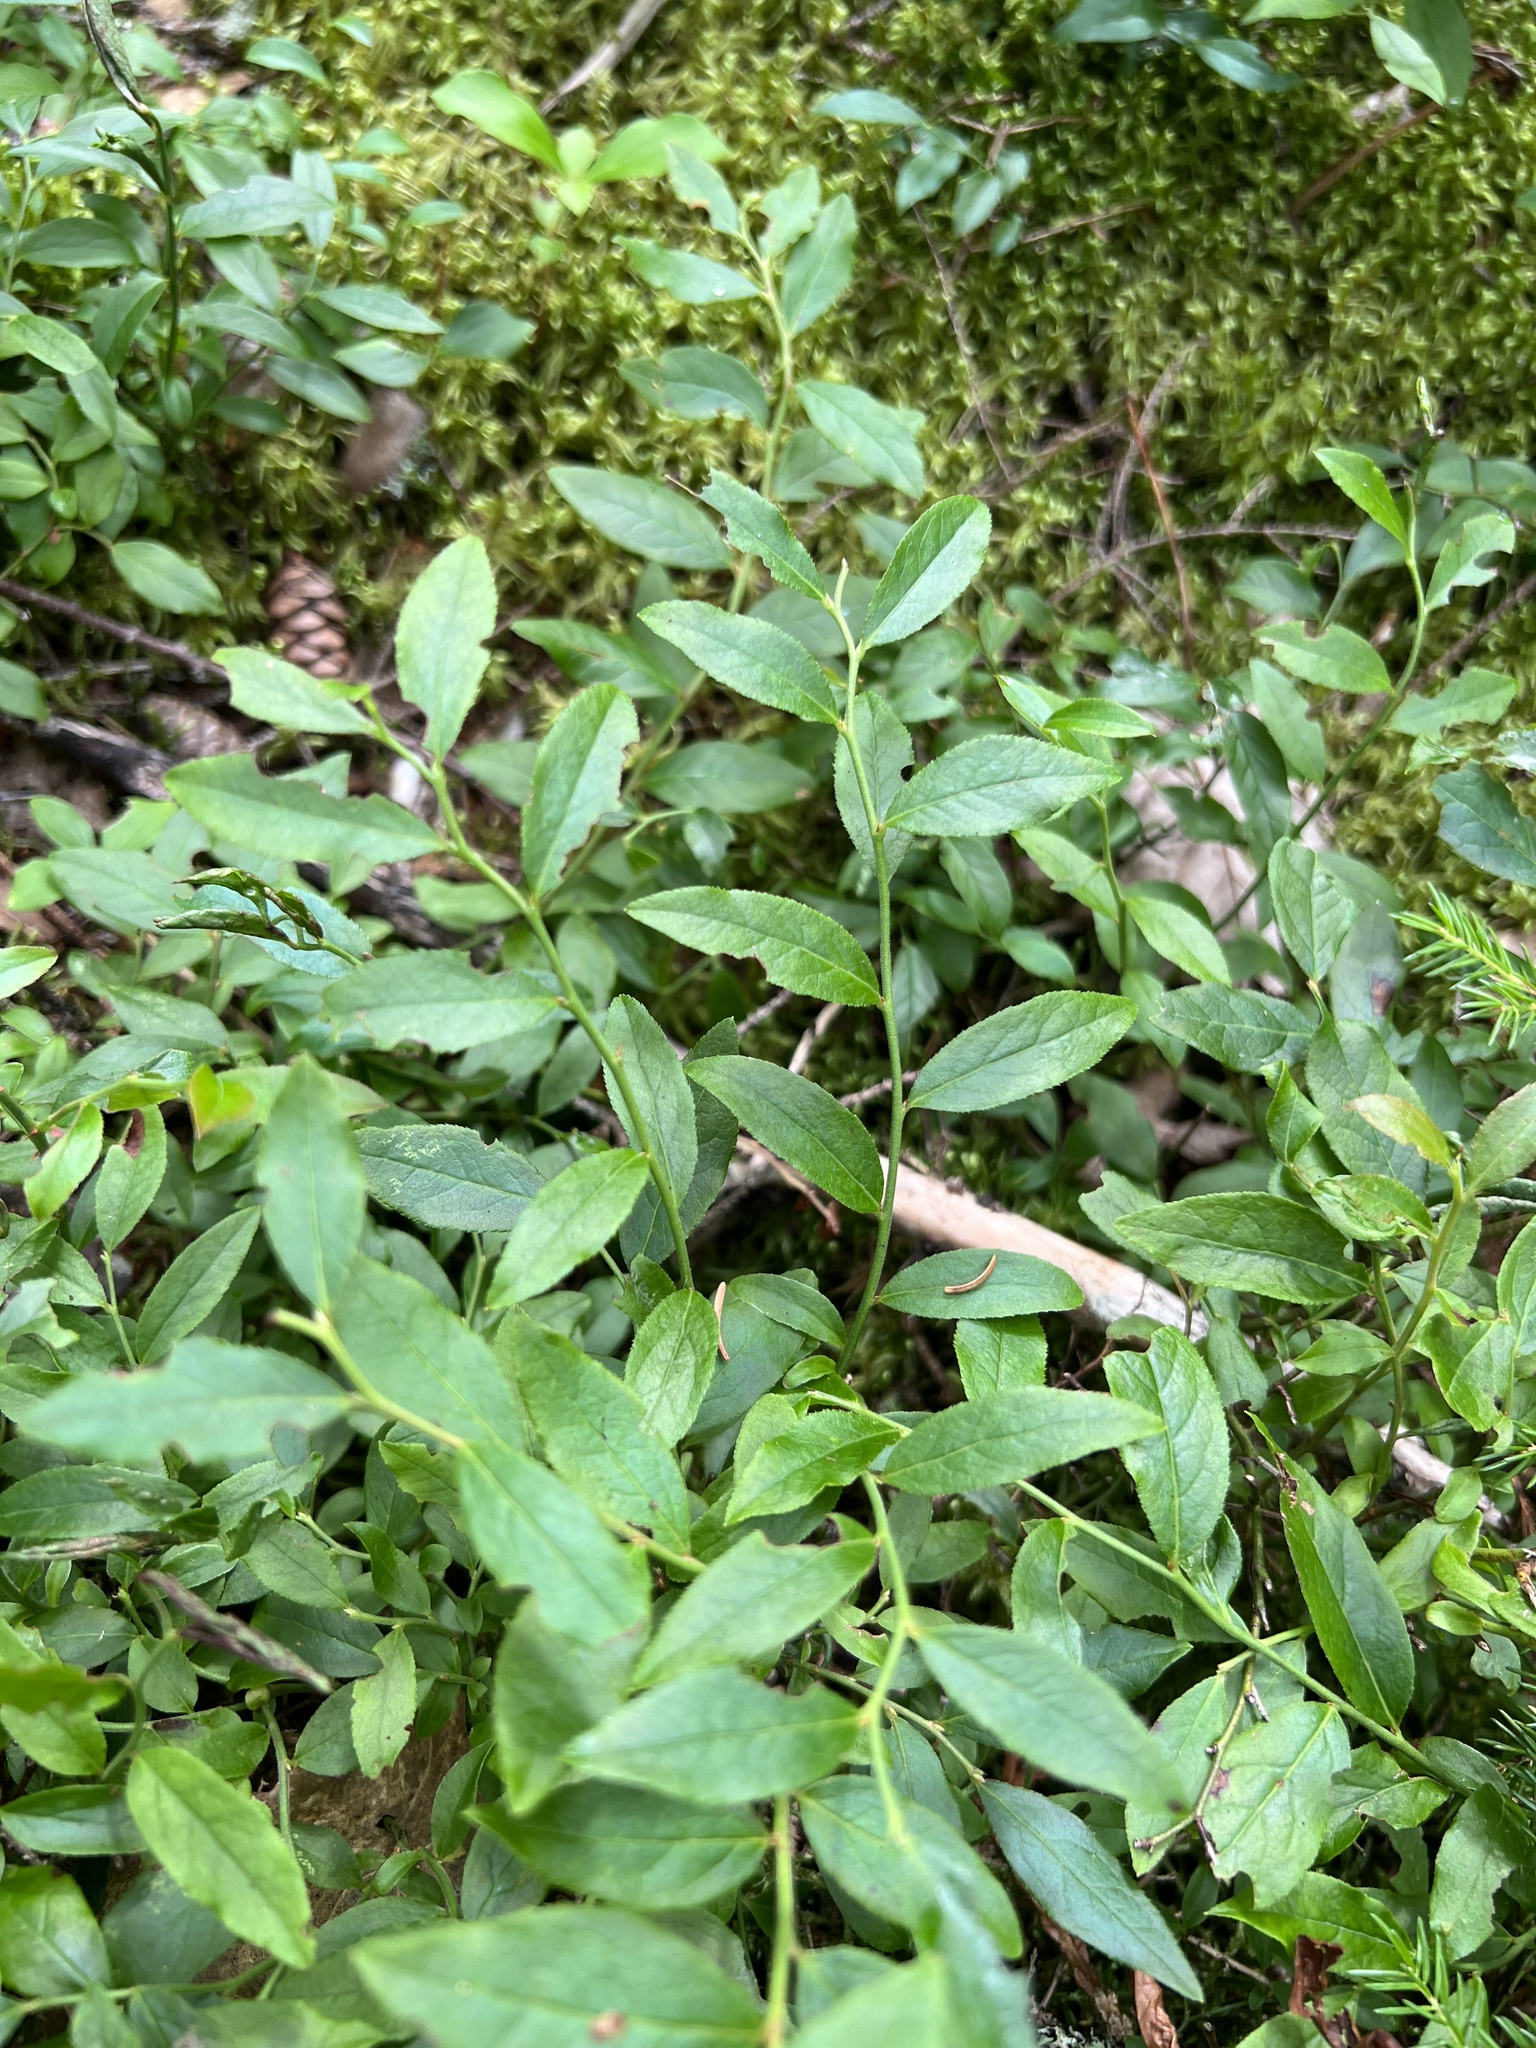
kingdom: Plantae
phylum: Tracheophyta
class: Magnoliopsida
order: Ericales
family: Ericaceae
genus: Vaccinium
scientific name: Vaccinium angustifolium
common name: Early lowbush blueberry
